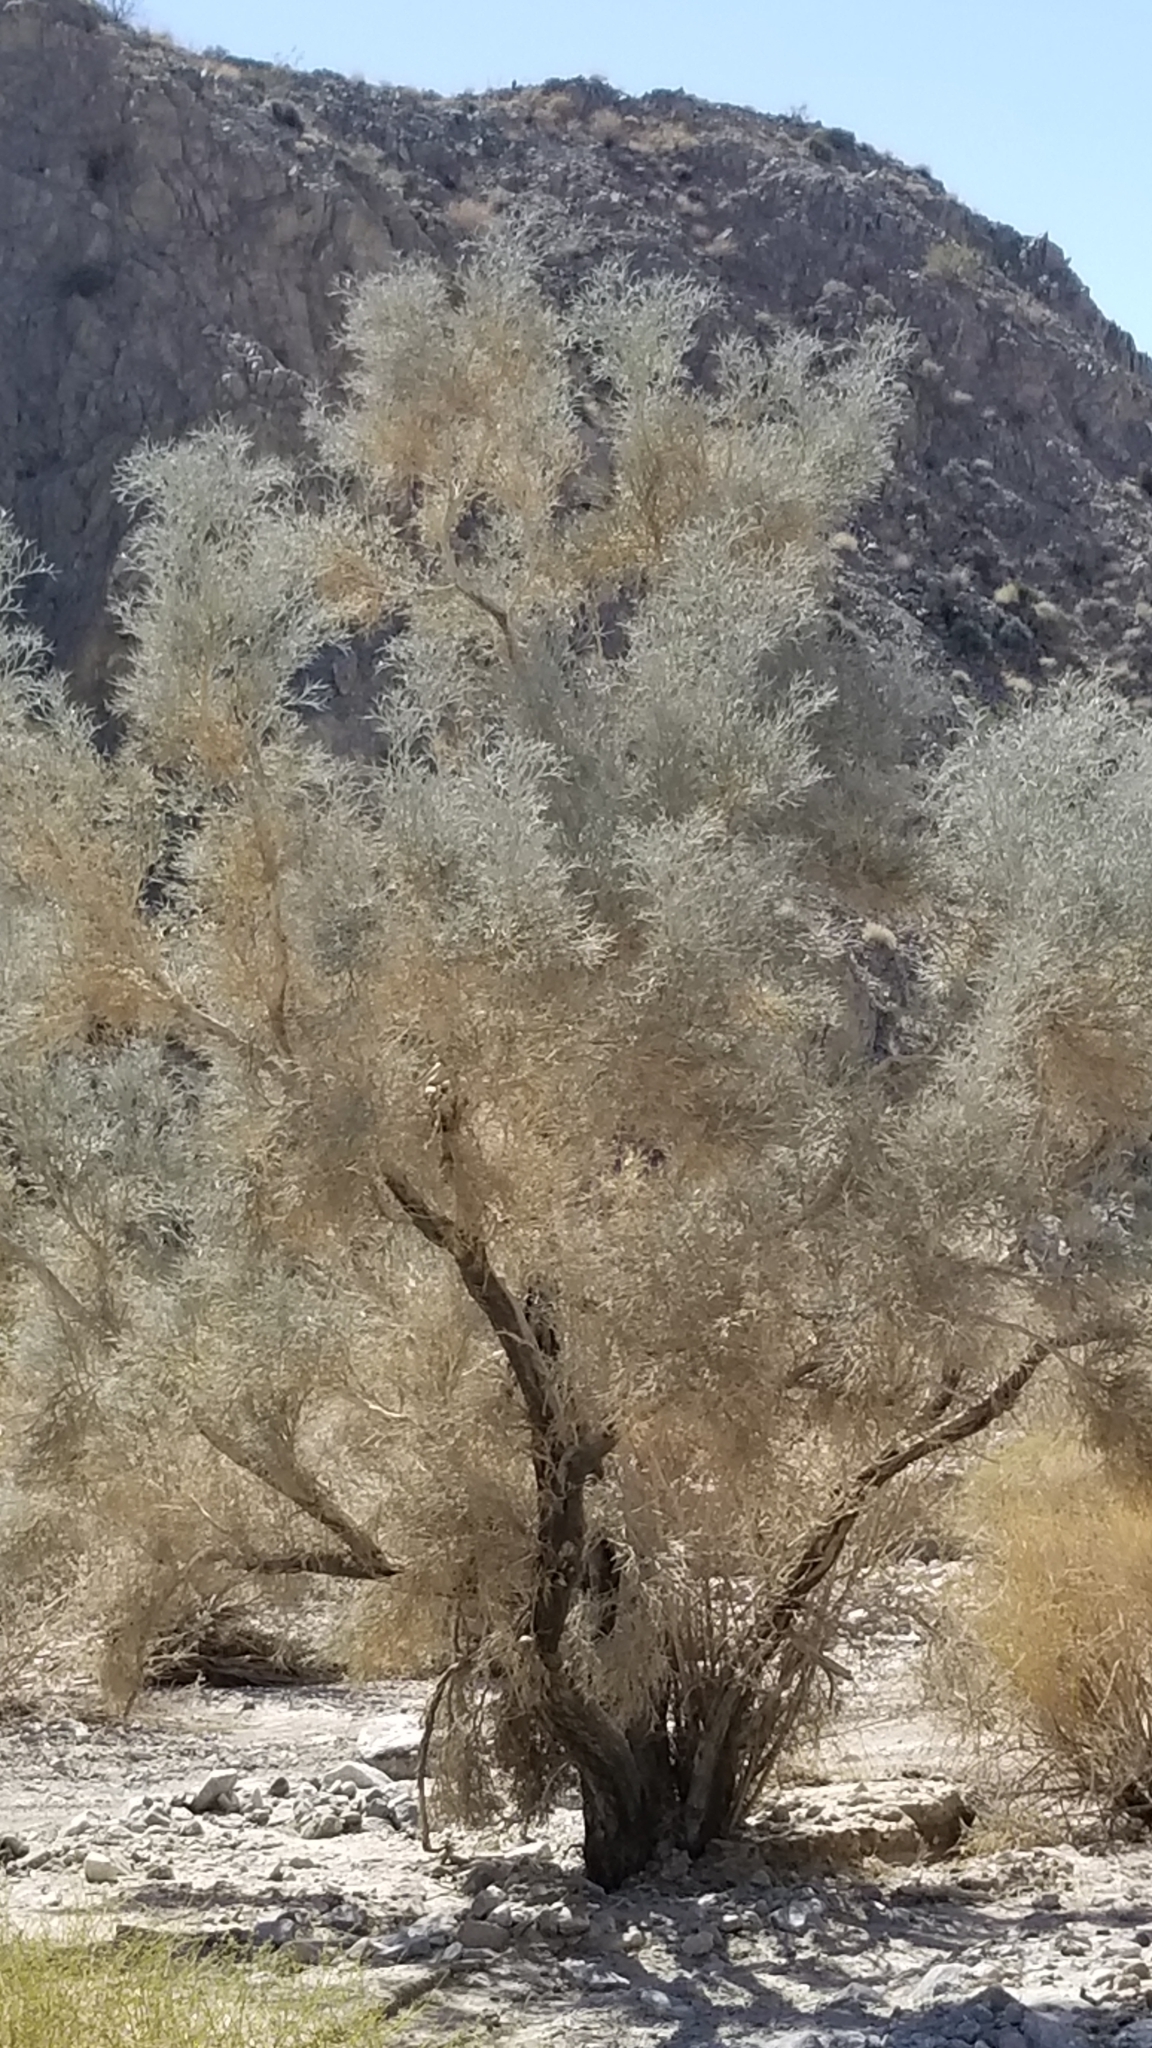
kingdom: Plantae
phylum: Tracheophyta
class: Magnoliopsida
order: Fabales
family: Fabaceae
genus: Psorothamnus
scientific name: Psorothamnus spinosus
